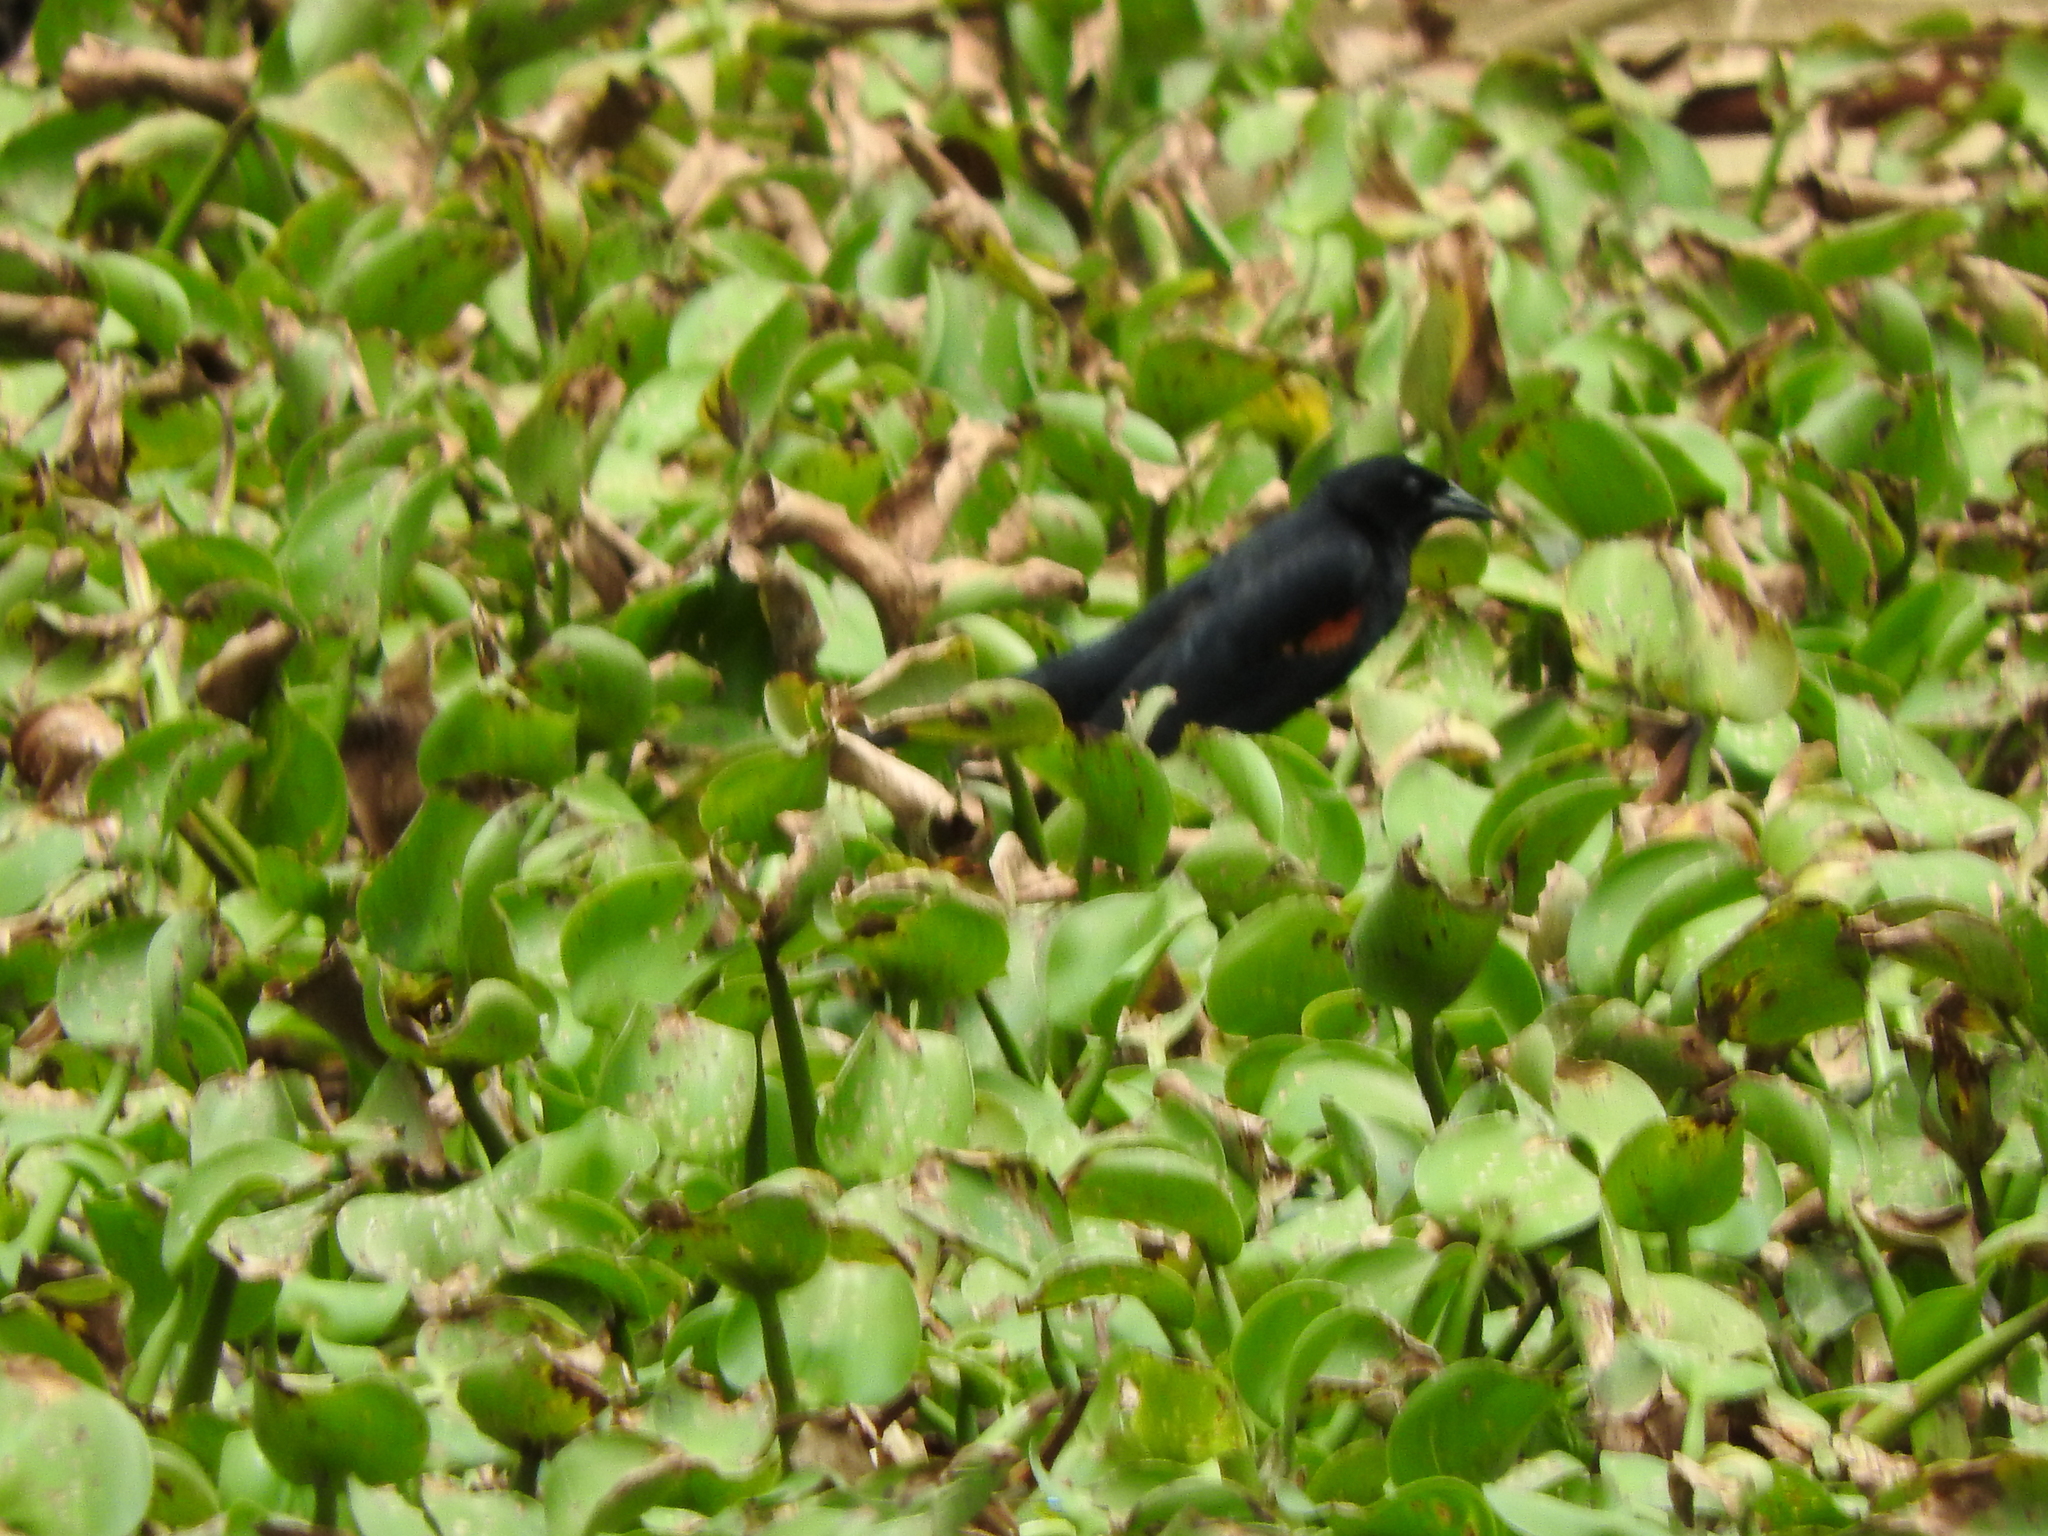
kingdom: Animalia
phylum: Chordata
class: Aves
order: Passeriformes
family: Icteridae
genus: Agelaius
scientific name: Agelaius phoeniceus
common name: Red-winged blackbird
